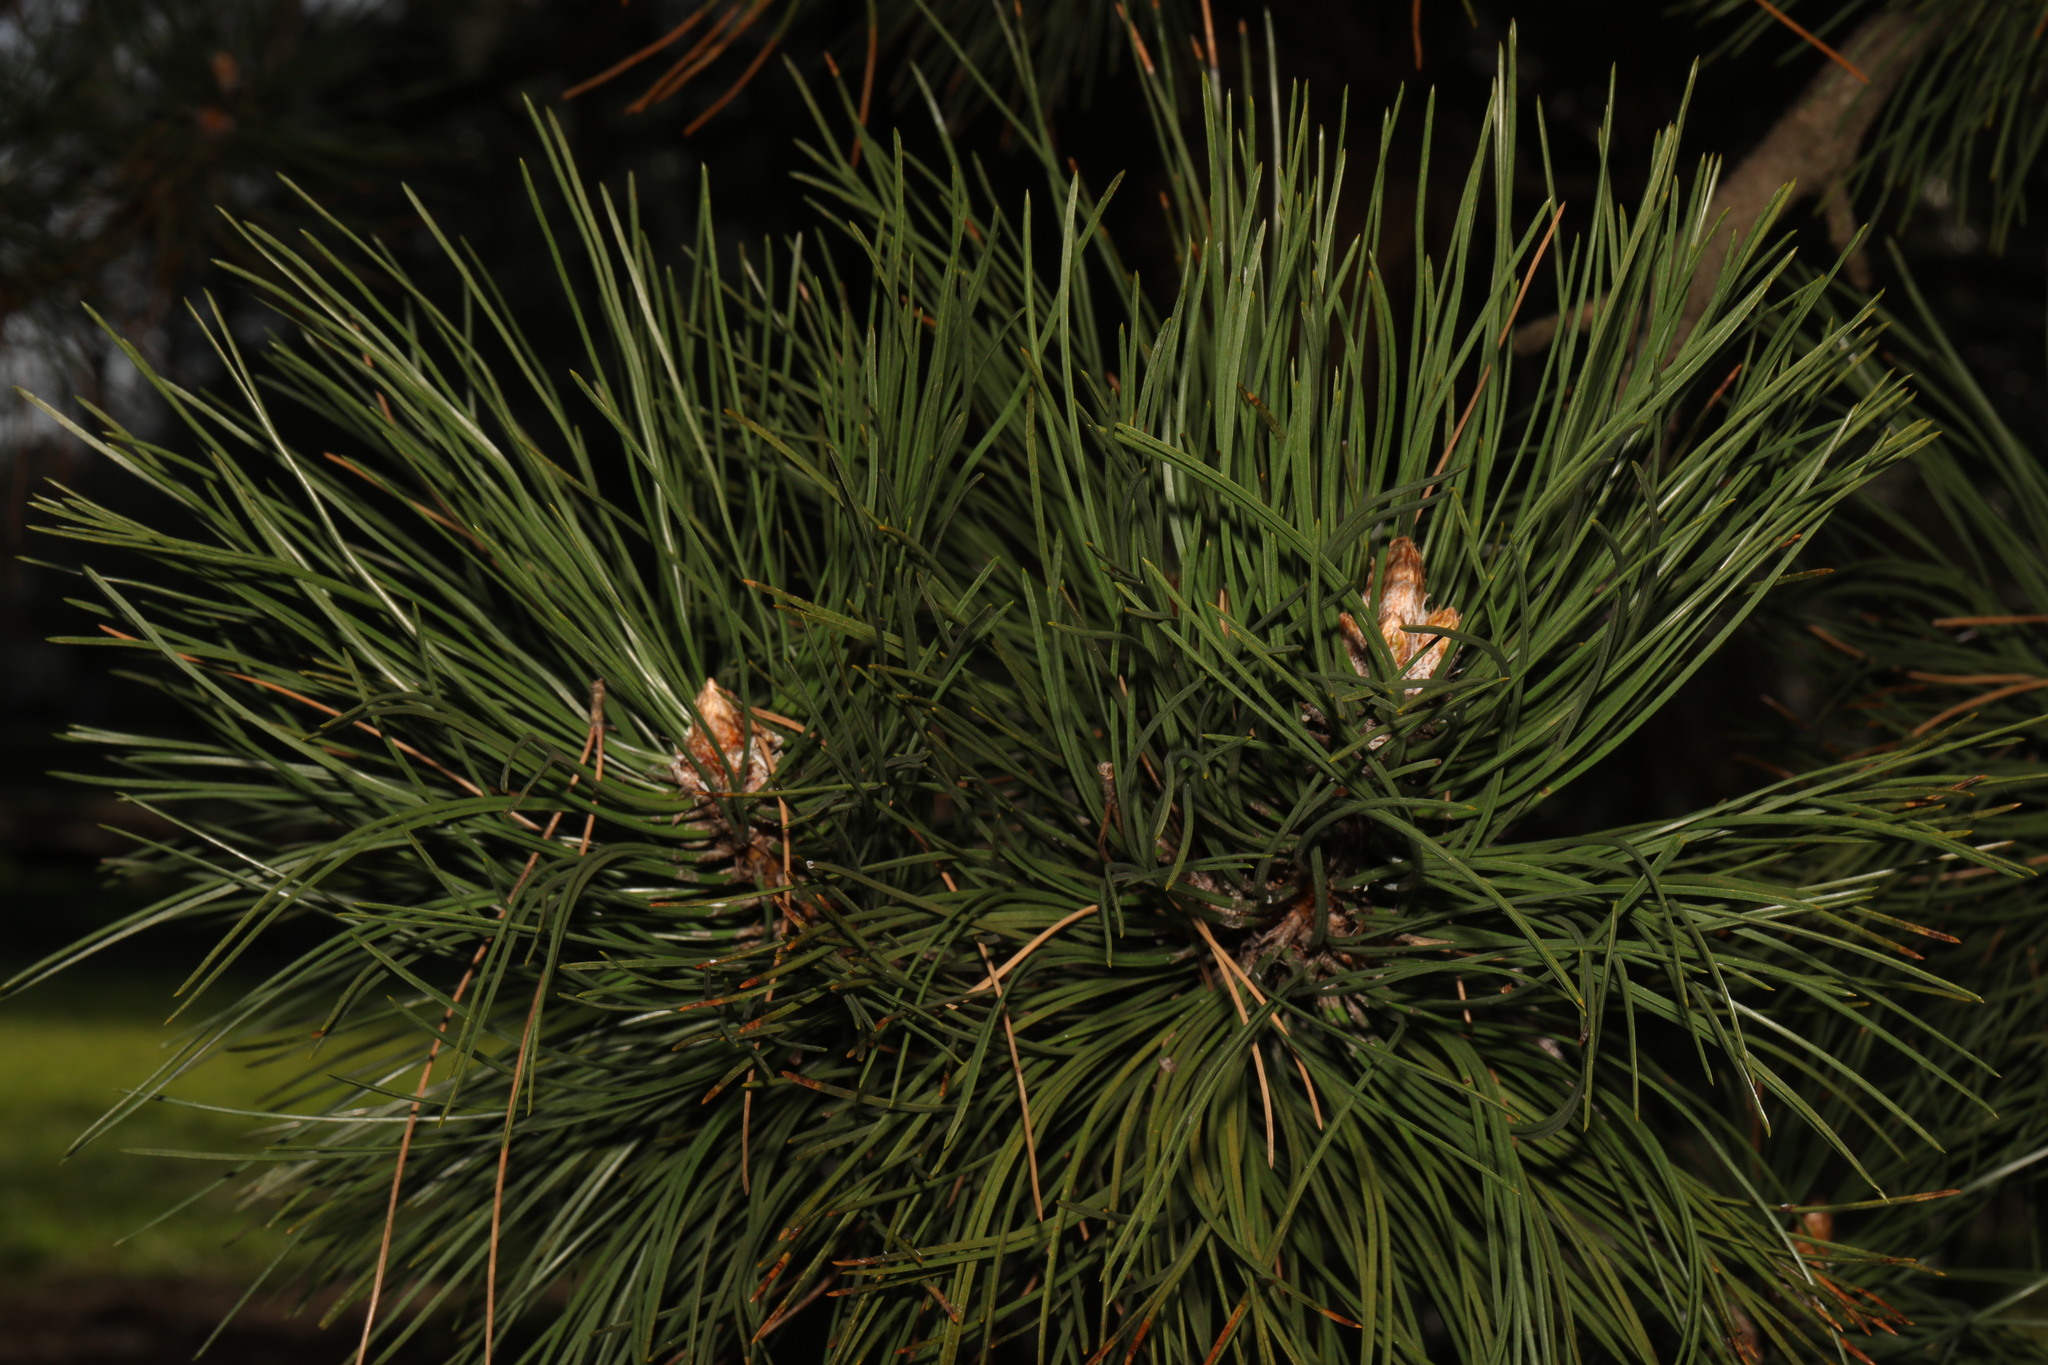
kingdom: Plantae
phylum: Tracheophyta
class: Pinopsida
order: Pinales
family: Pinaceae
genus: Pinus
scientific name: Pinus sylvestris
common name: Scots pine
